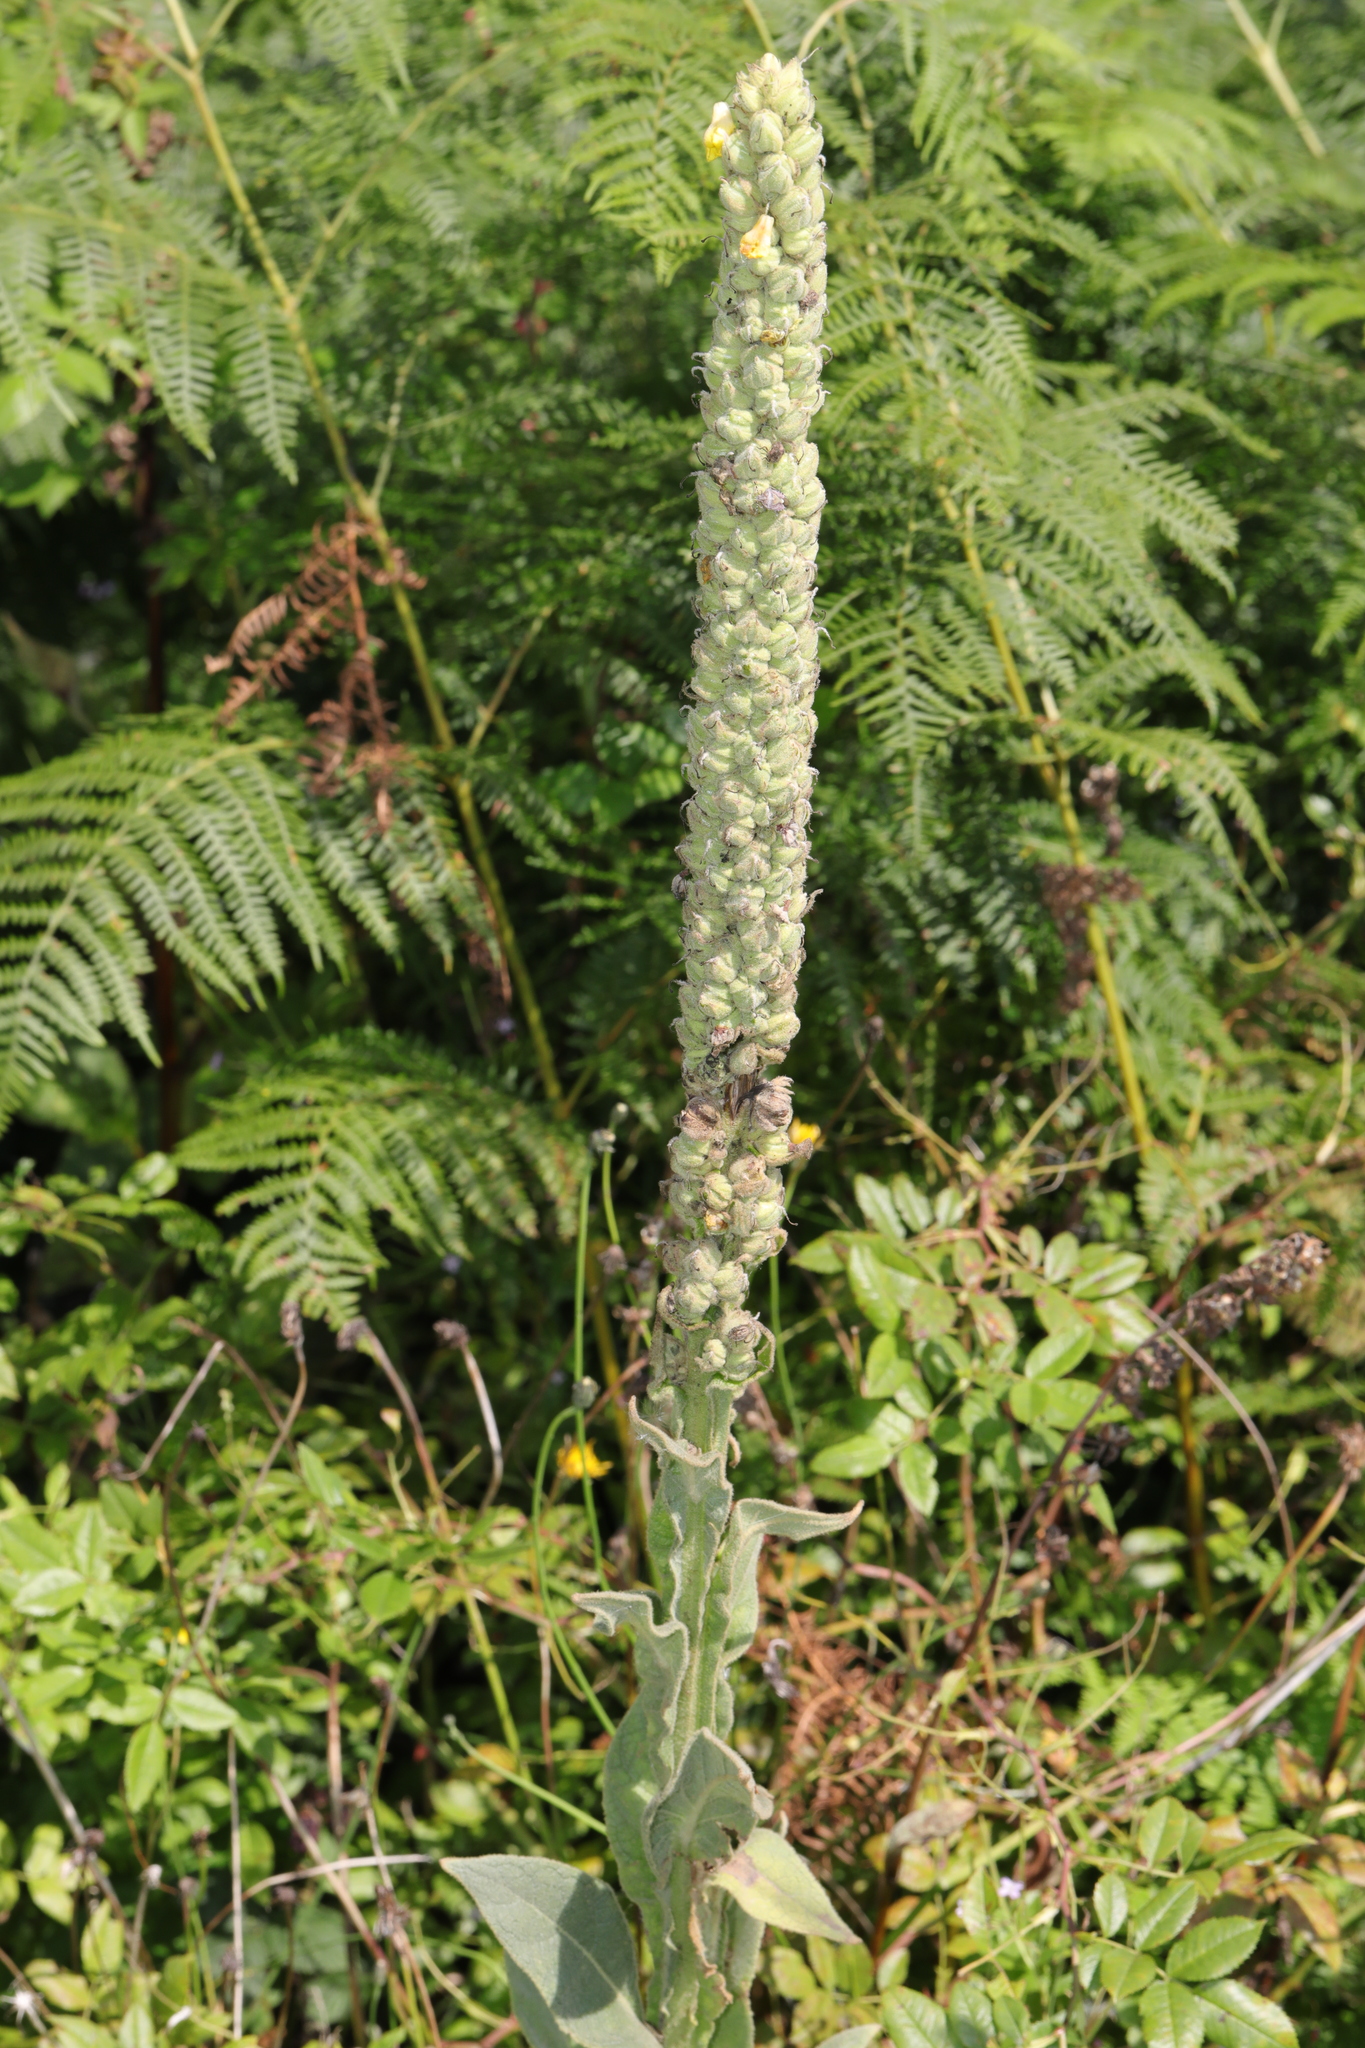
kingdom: Plantae
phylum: Tracheophyta
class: Magnoliopsida
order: Lamiales
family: Scrophulariaceae
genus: Verbascum
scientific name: Verbascum thapsus
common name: Common mullein
